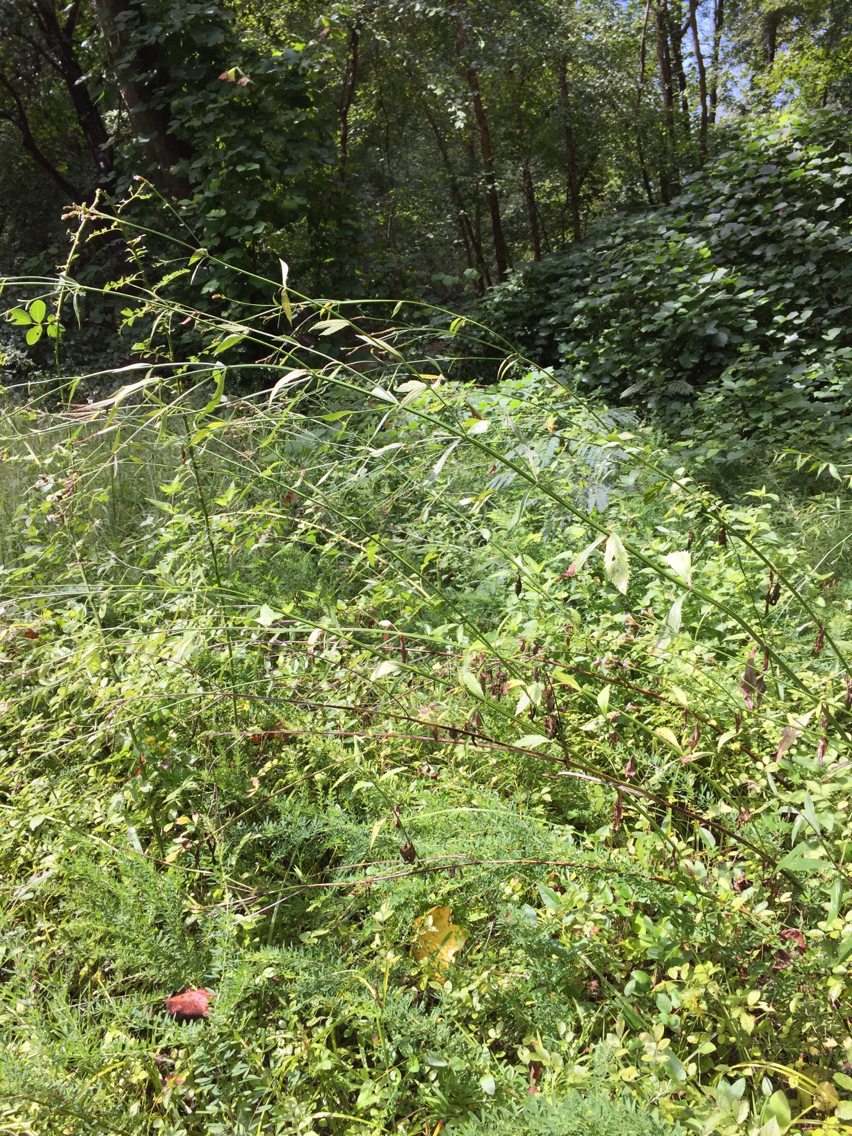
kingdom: Plantae
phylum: Tracheophyta
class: Magnoliopsida
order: Lamiales
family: Verbenaceae
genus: Verbena
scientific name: Verbena brasiliensis
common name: Brazilian vervain
